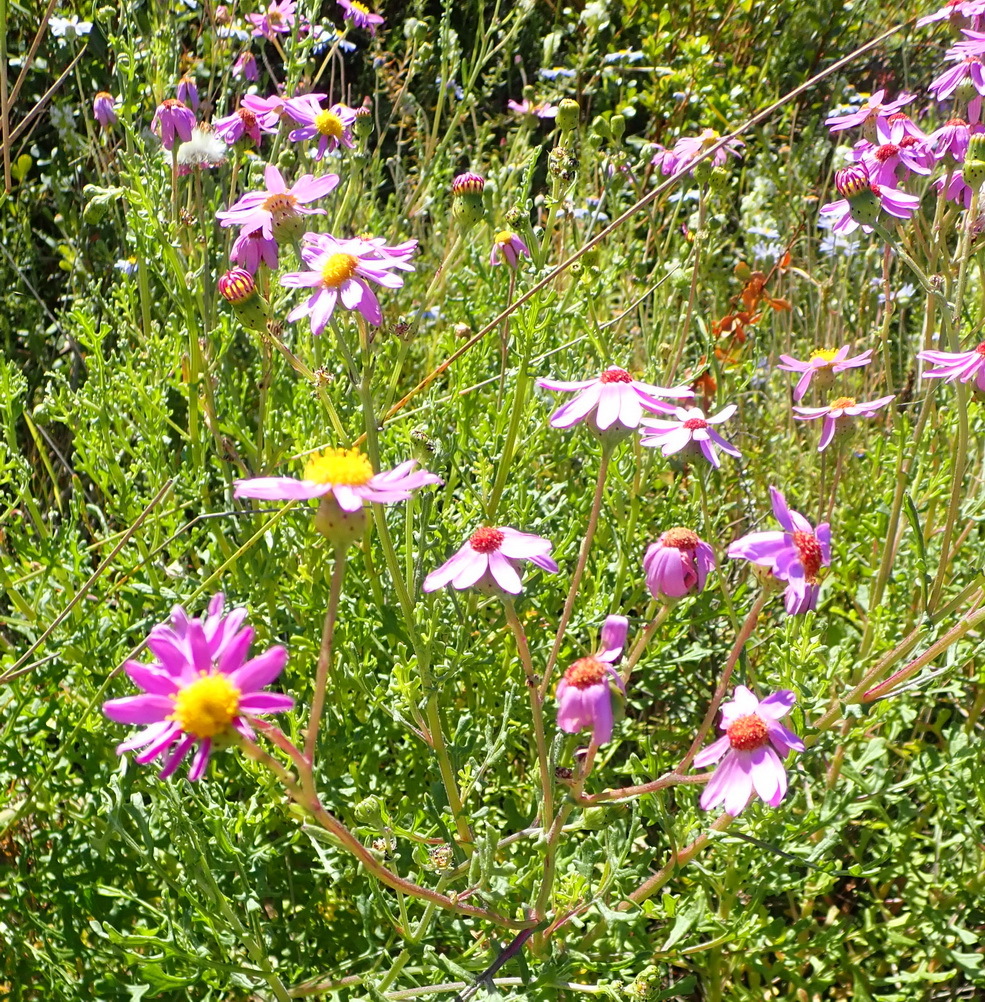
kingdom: Plantae
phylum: Tracheophyta
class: Magnoliopsida
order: Asterales
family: Asteraceae
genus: Senecio
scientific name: Senecio elegans
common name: Purple groundsel
